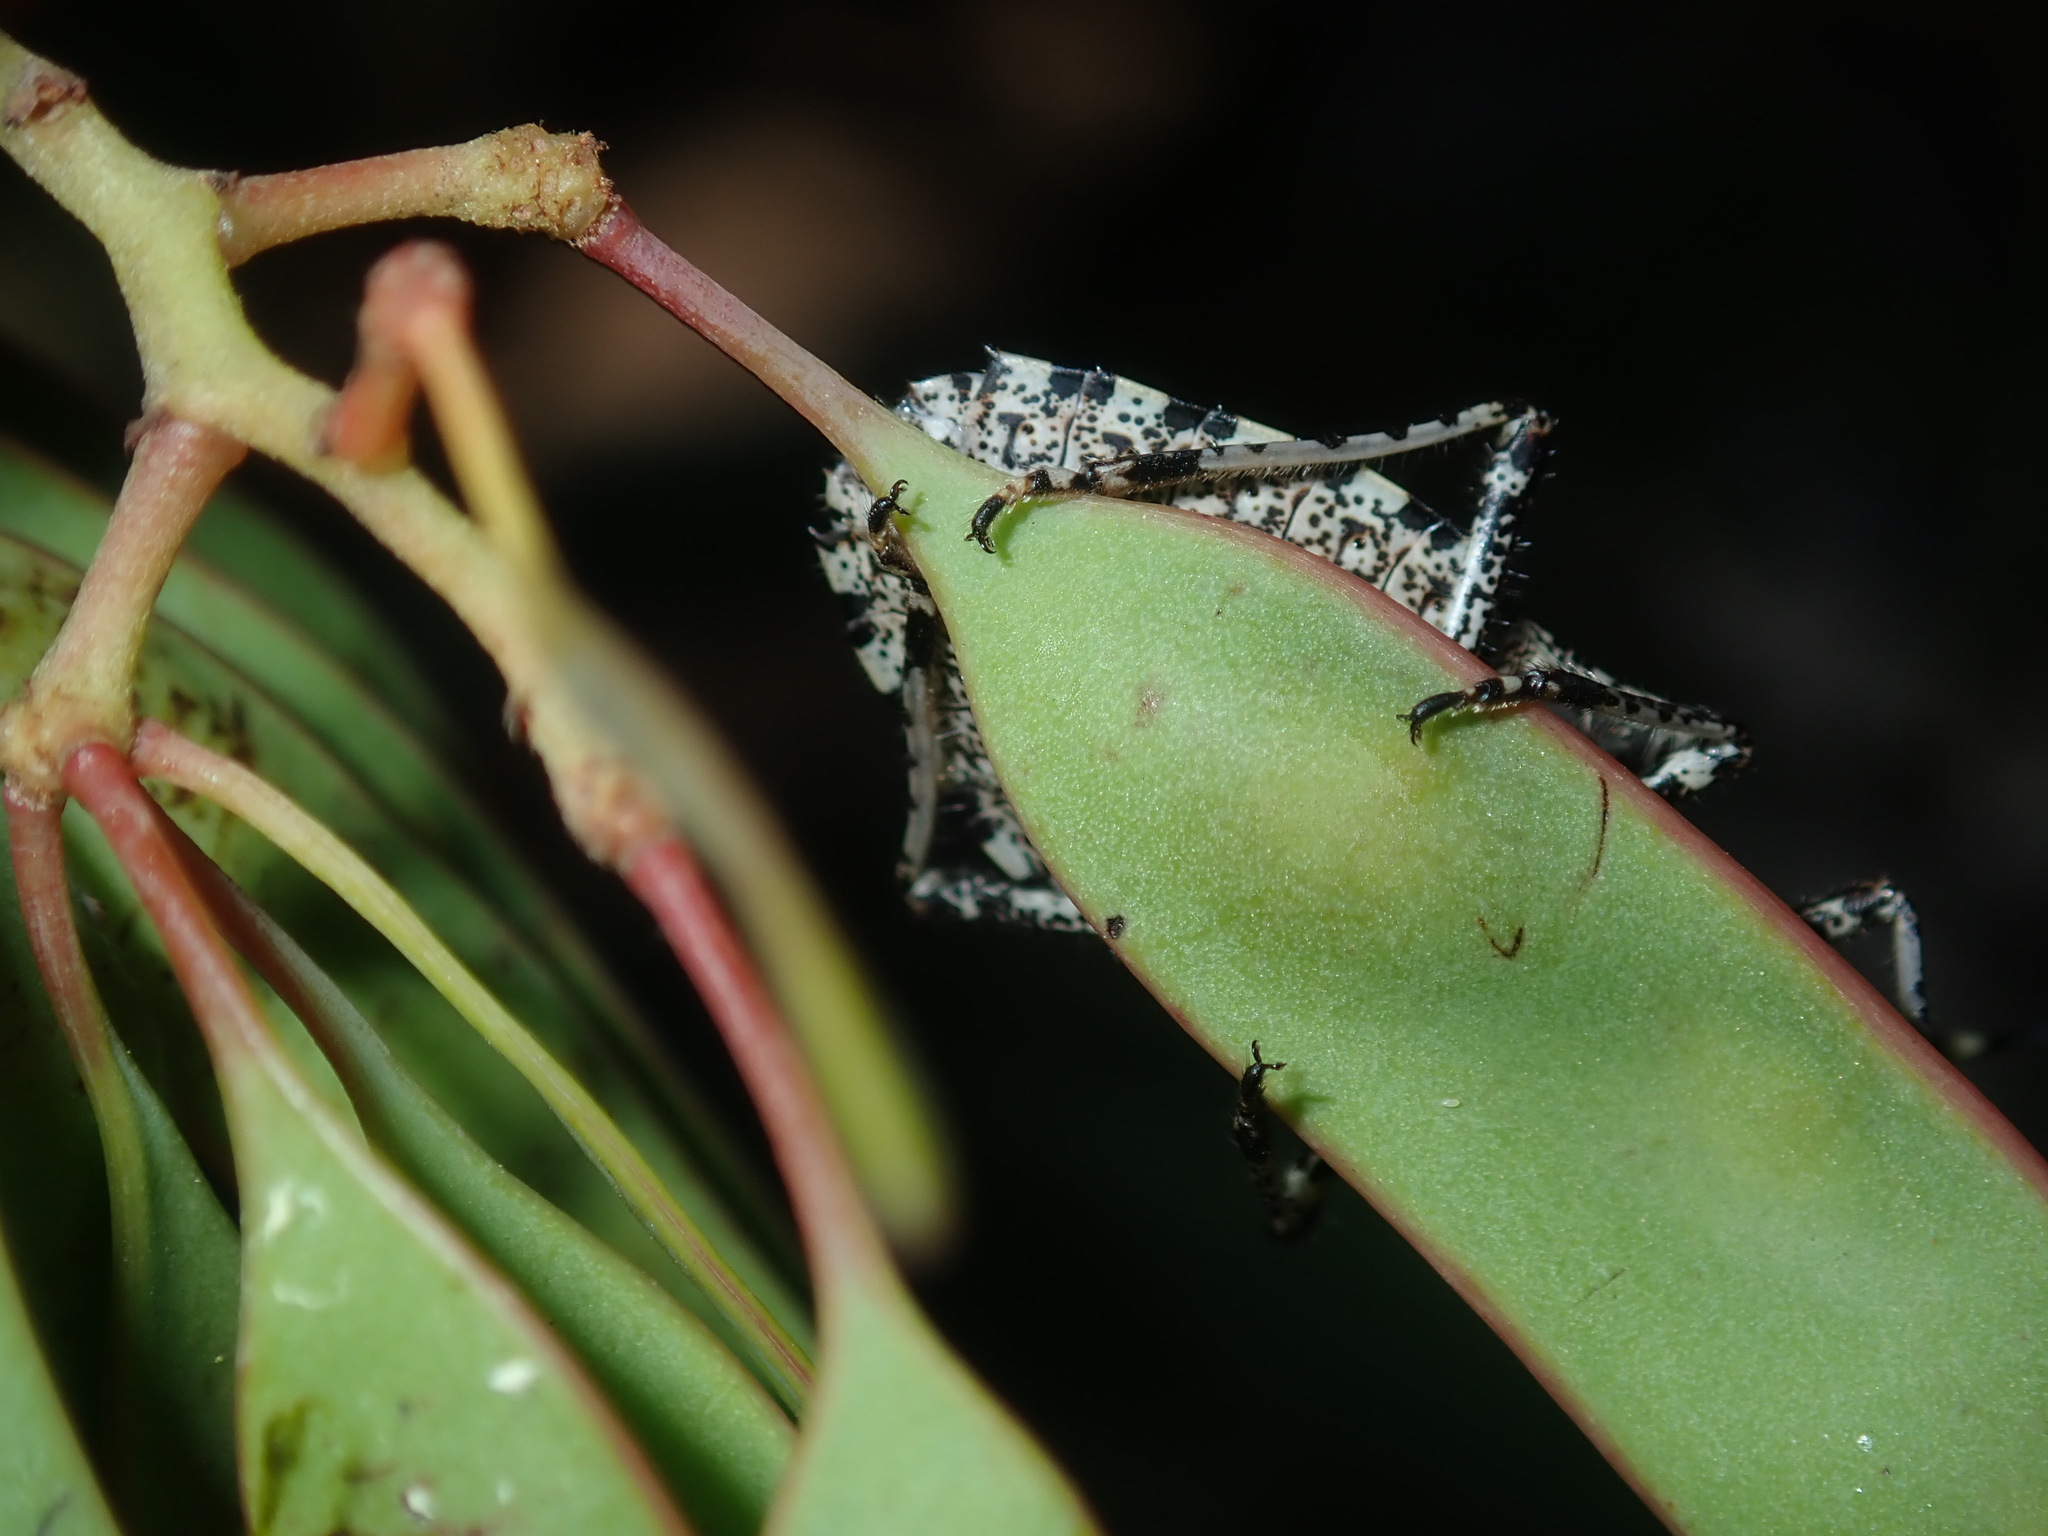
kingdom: Animalia
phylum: Arthropoda
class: Insecta
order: Hemiptera
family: Pentatomidae
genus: Alcaeus
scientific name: Alcaeus
